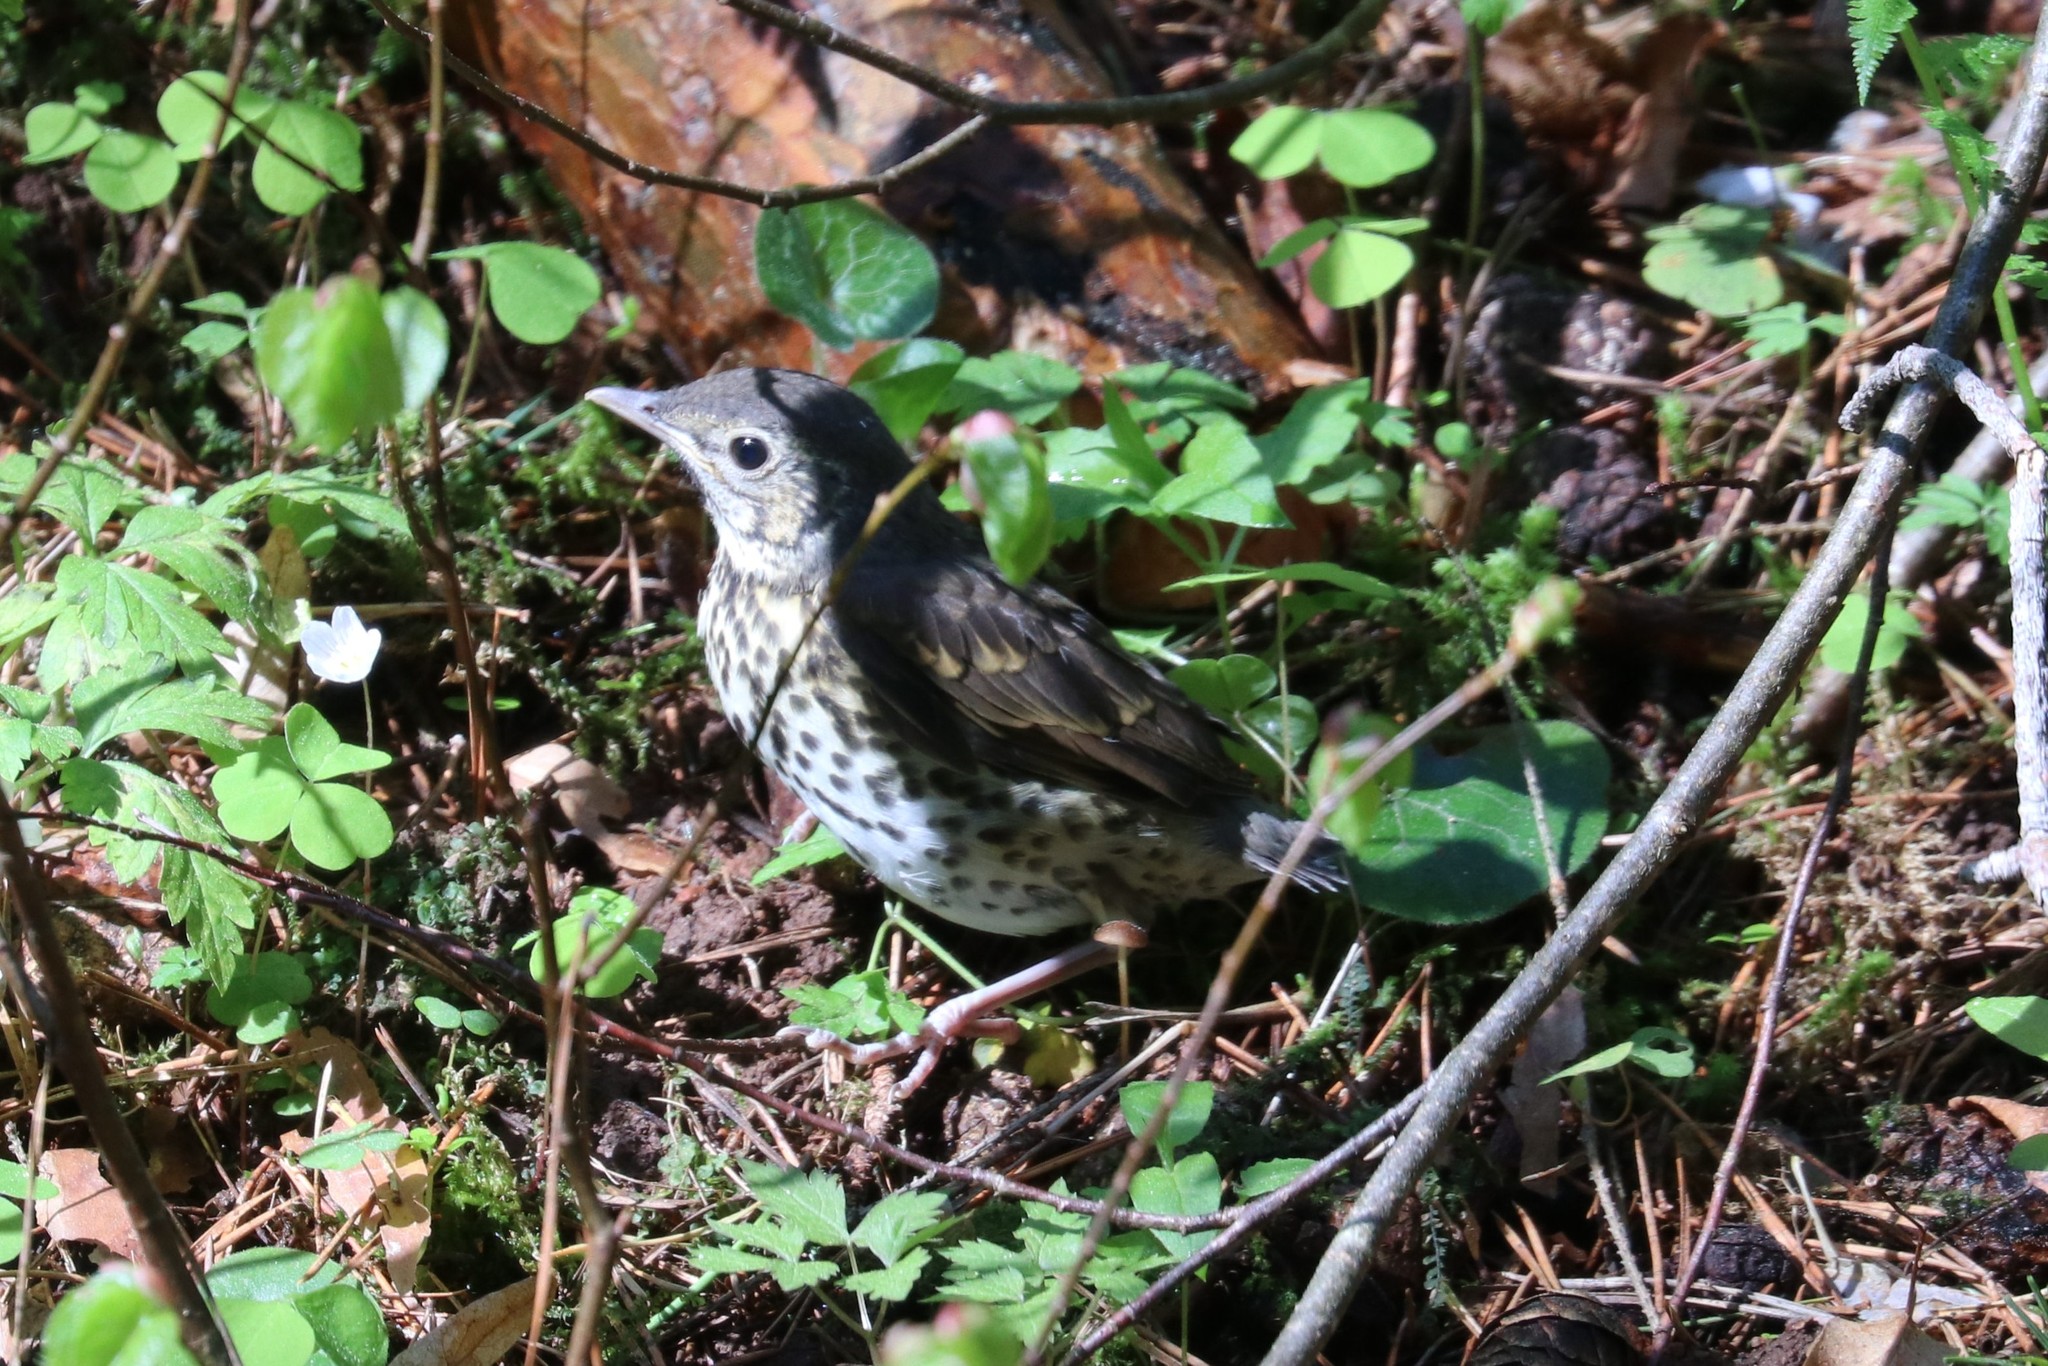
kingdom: Animalia
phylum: Chordata
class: Aves
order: Passeriformes
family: Turdidae
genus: Turdus
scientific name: Turdus philomelos
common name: Song thrush
